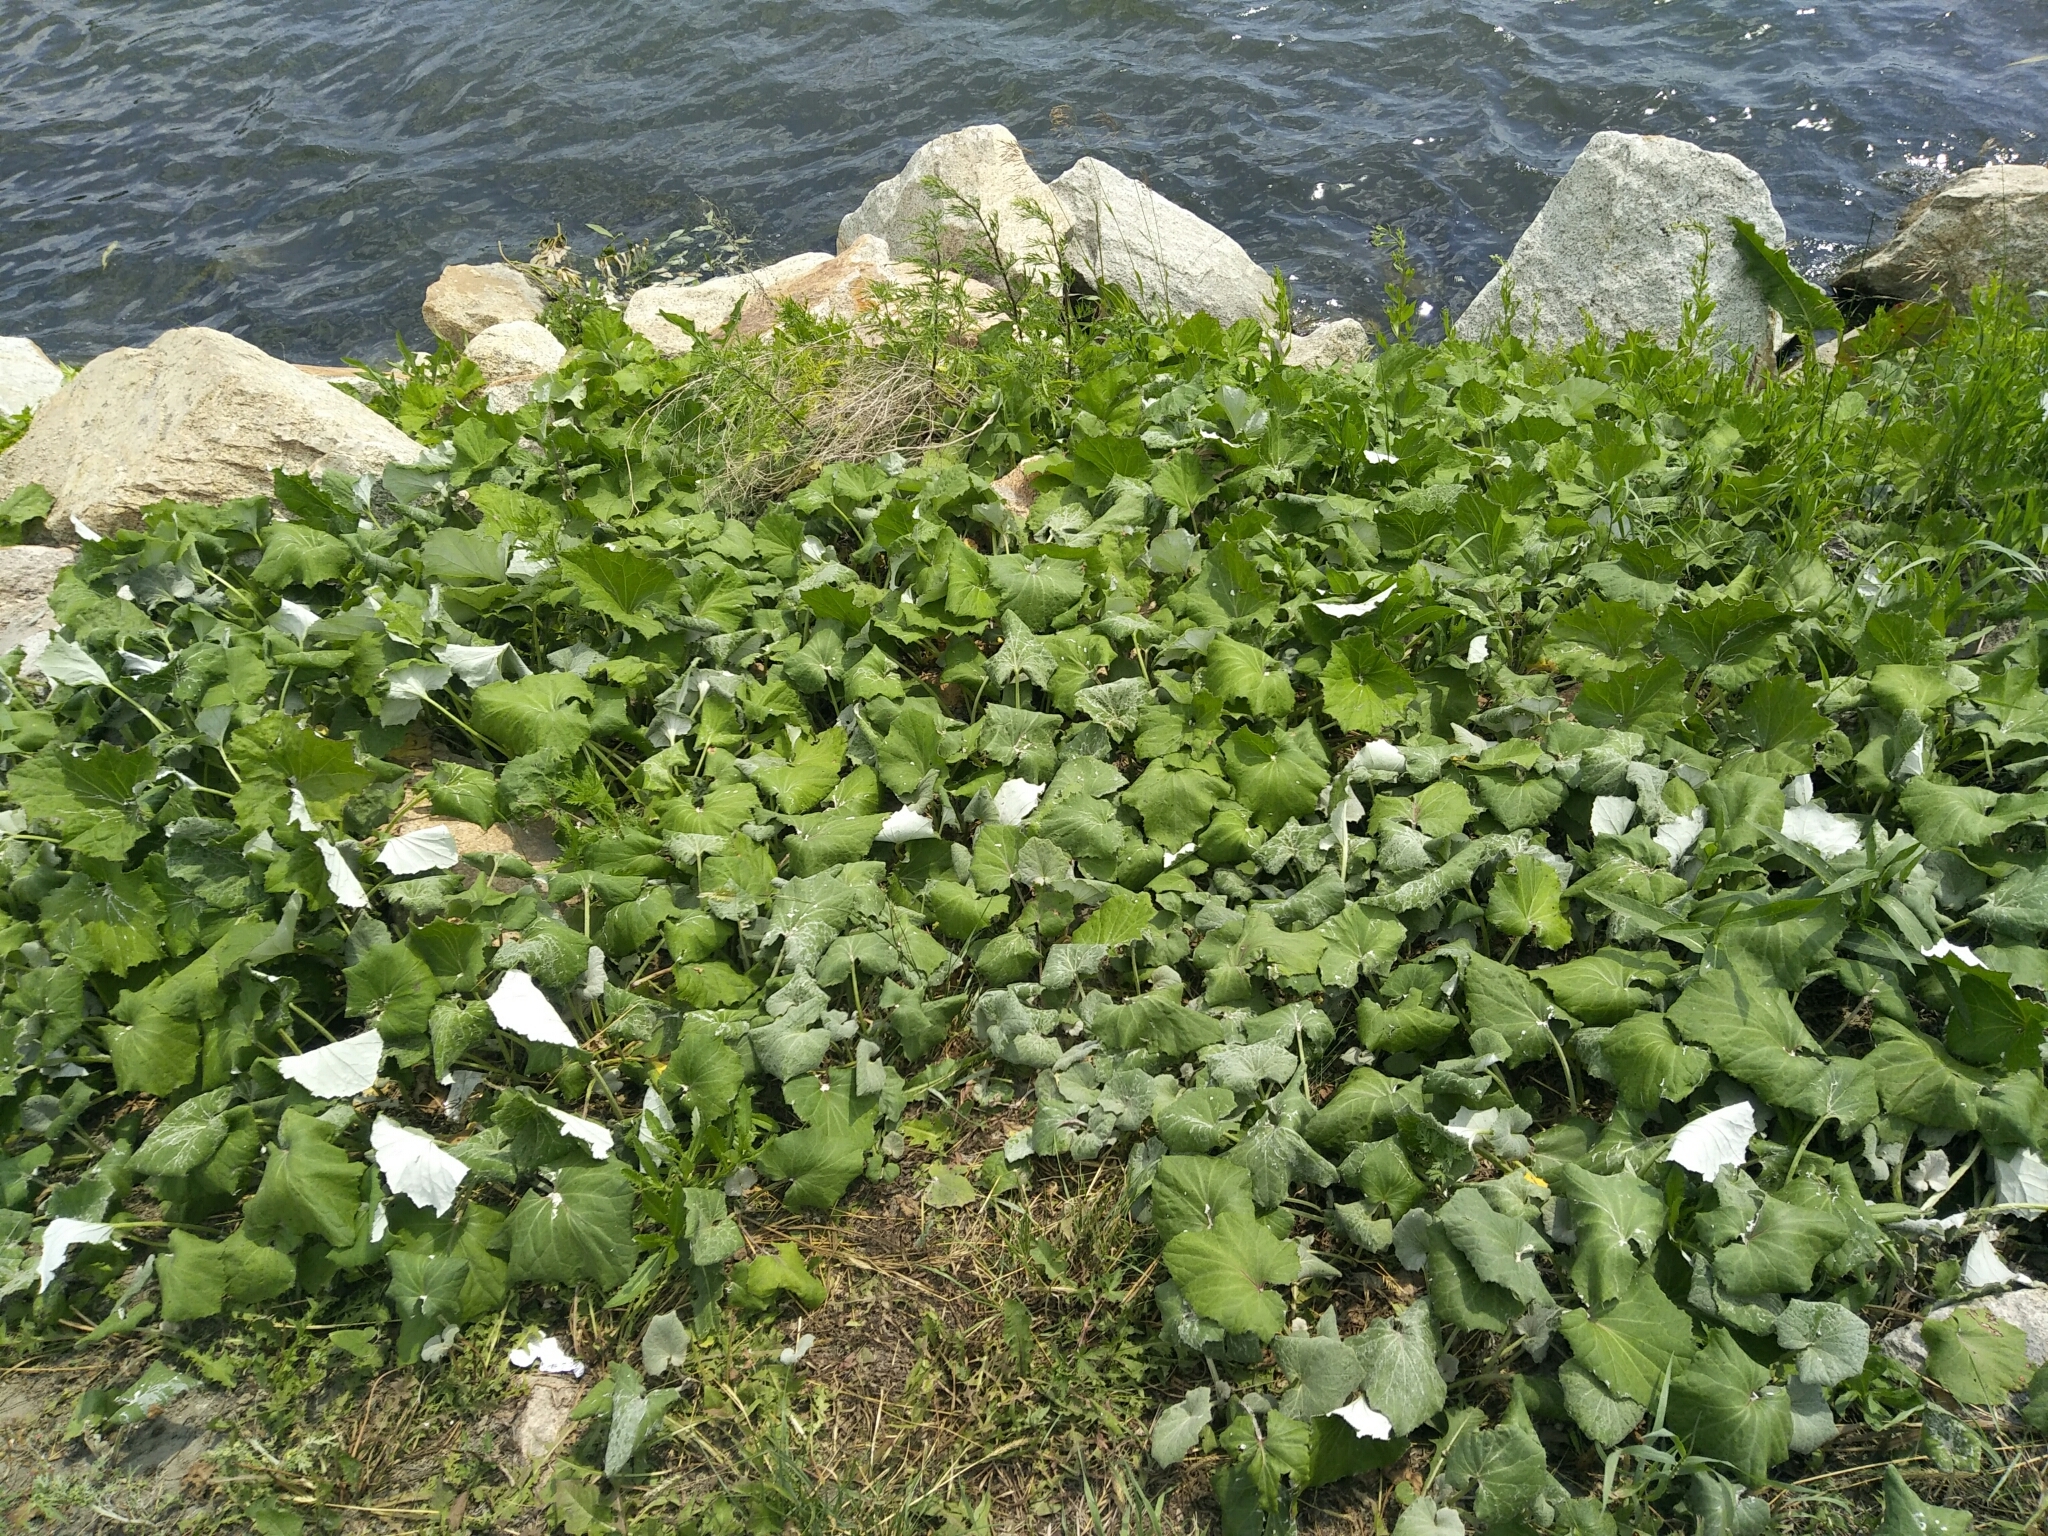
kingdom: Plantae
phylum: Tracheophyta
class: Magnoliopsida
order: Asterales
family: Asteraceae
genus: Tussilago
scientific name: Tussilago farfara
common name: Coltsfoot
